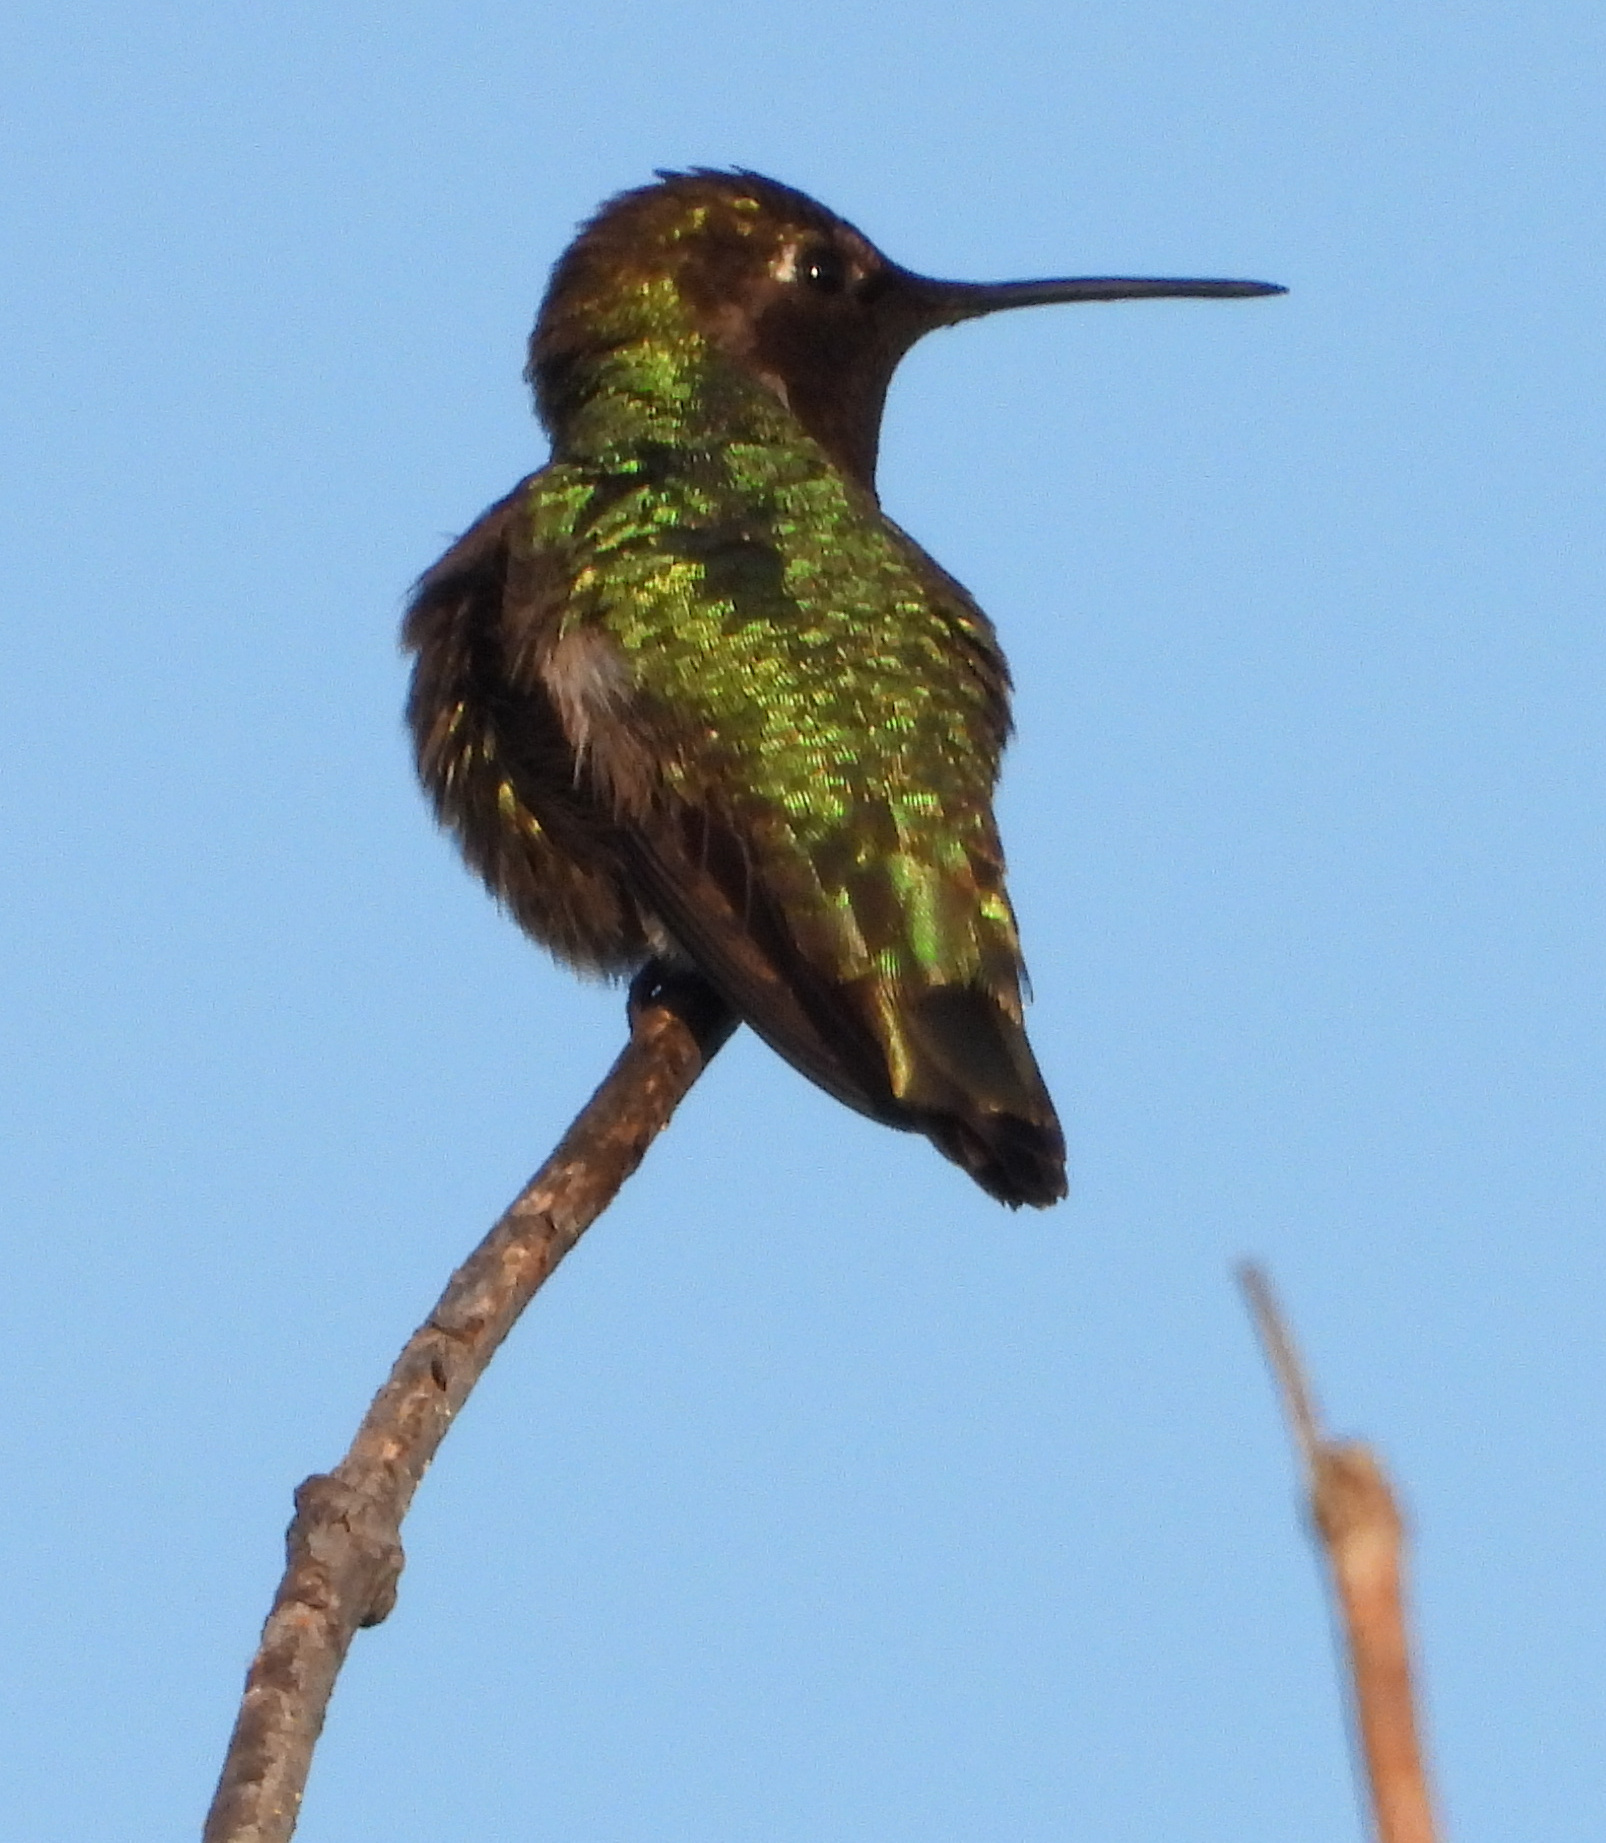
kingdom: Animalia
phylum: Chordata
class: Aves
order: Apodiformes
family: Trochilidae
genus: Calypte
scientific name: Calypte anna
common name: Anna's hummingbird
